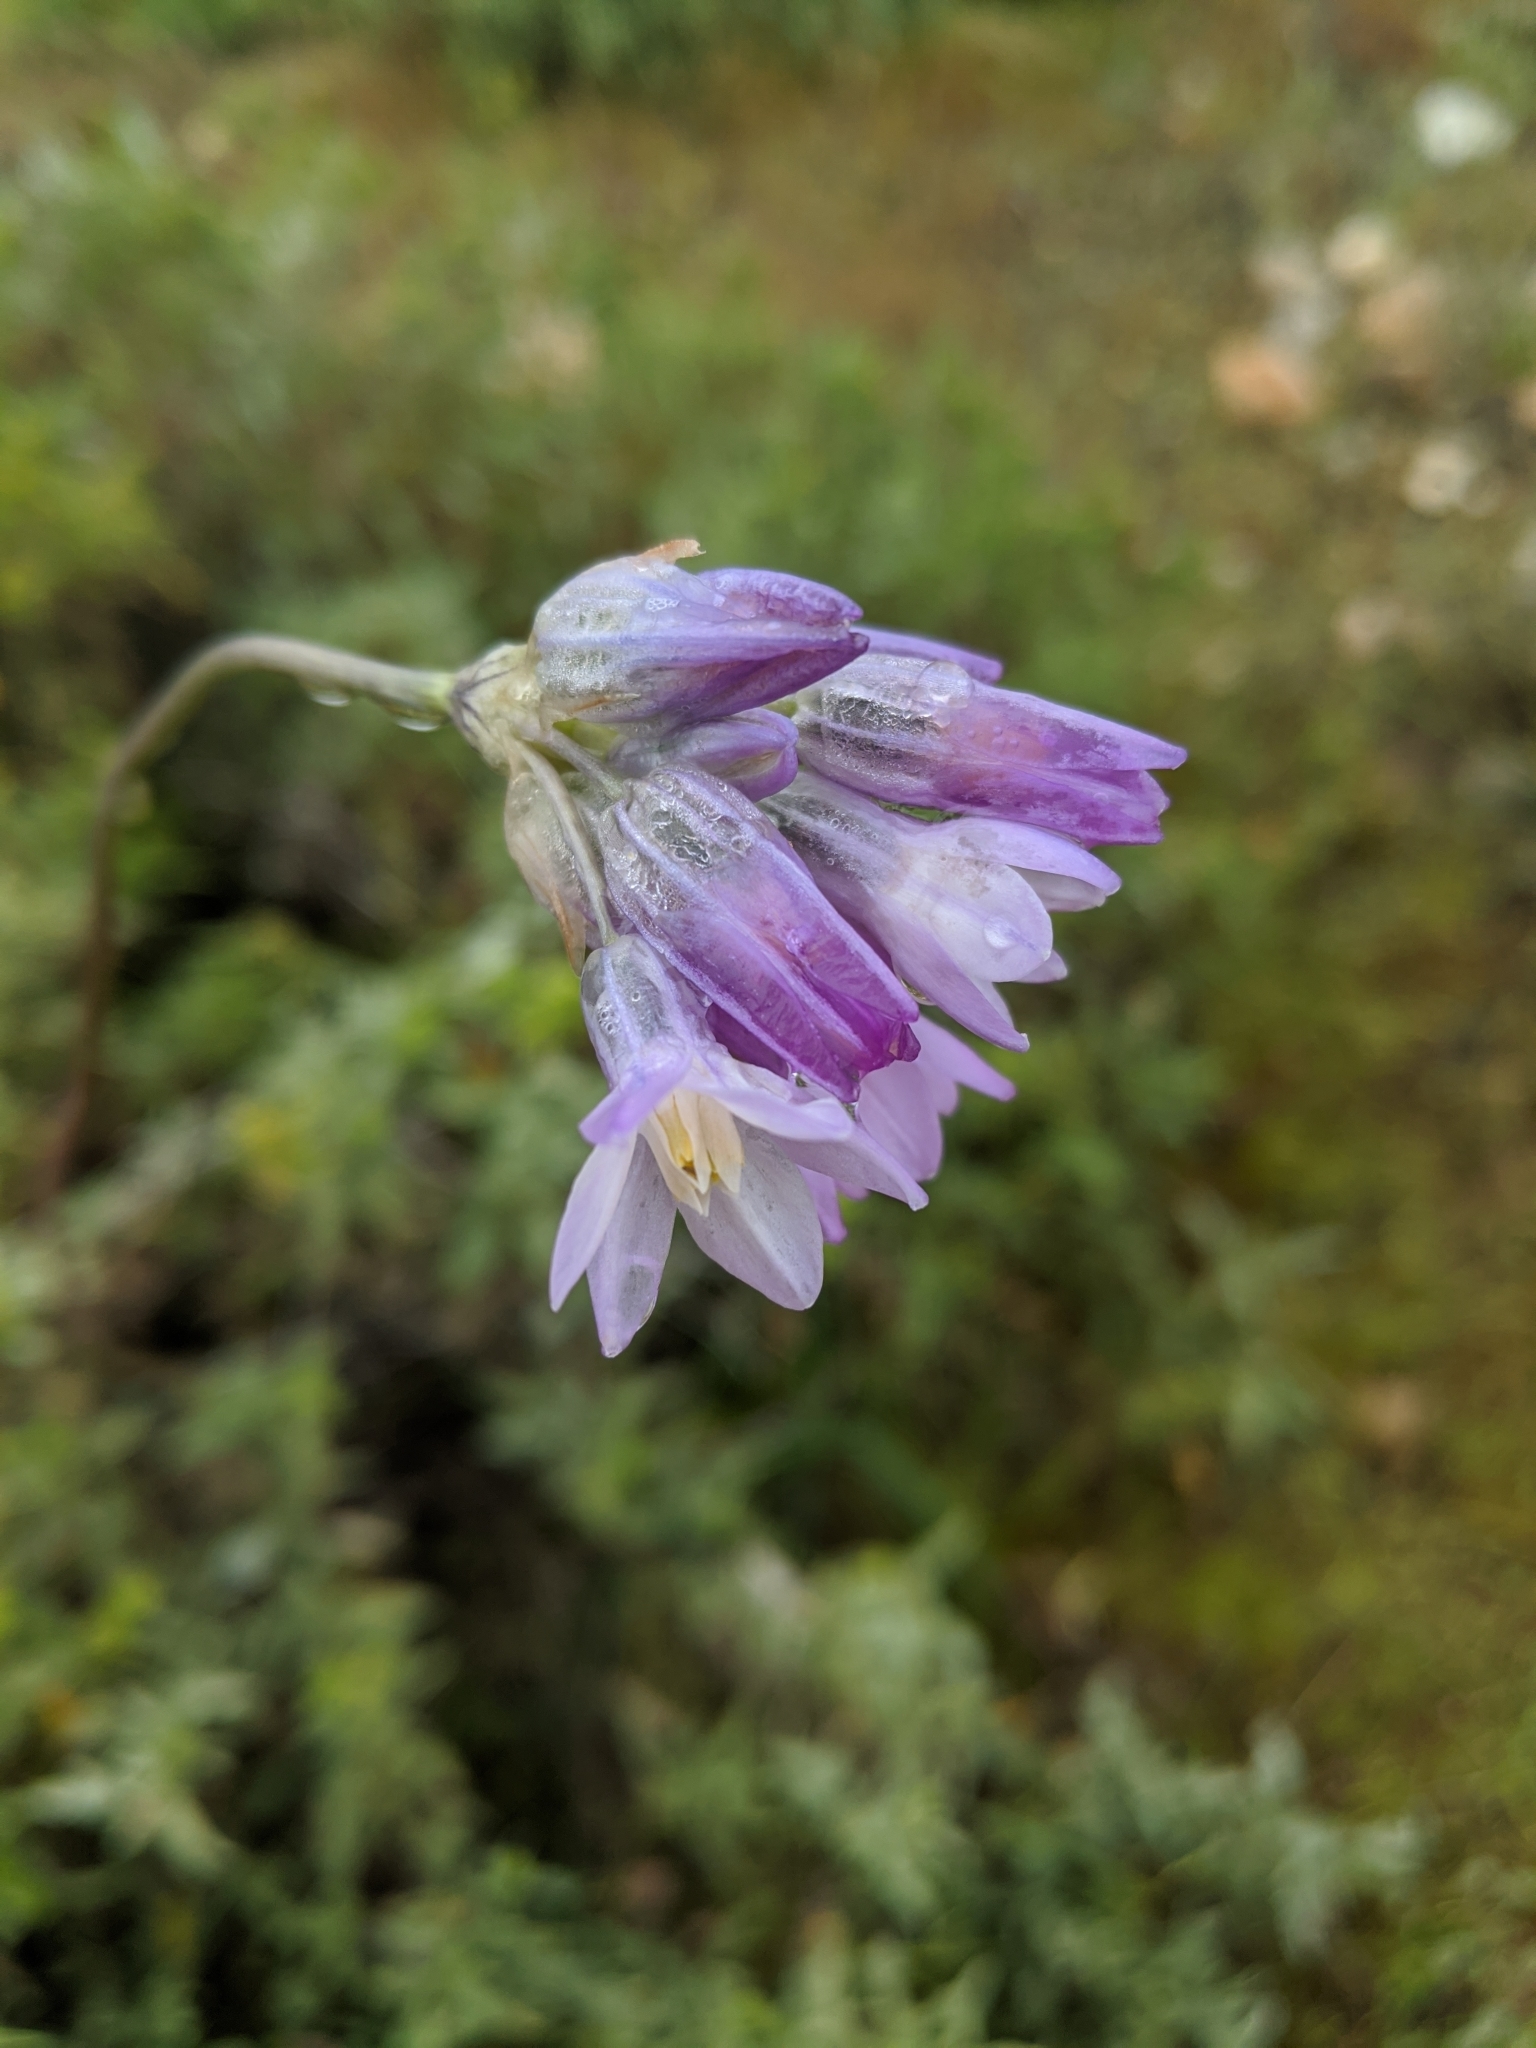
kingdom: Plantae
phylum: Tracheophyta
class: Liliopsida
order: Asparagales
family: Asparagaceae
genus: Dipterostemon
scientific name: Dipterostemon capitatus
